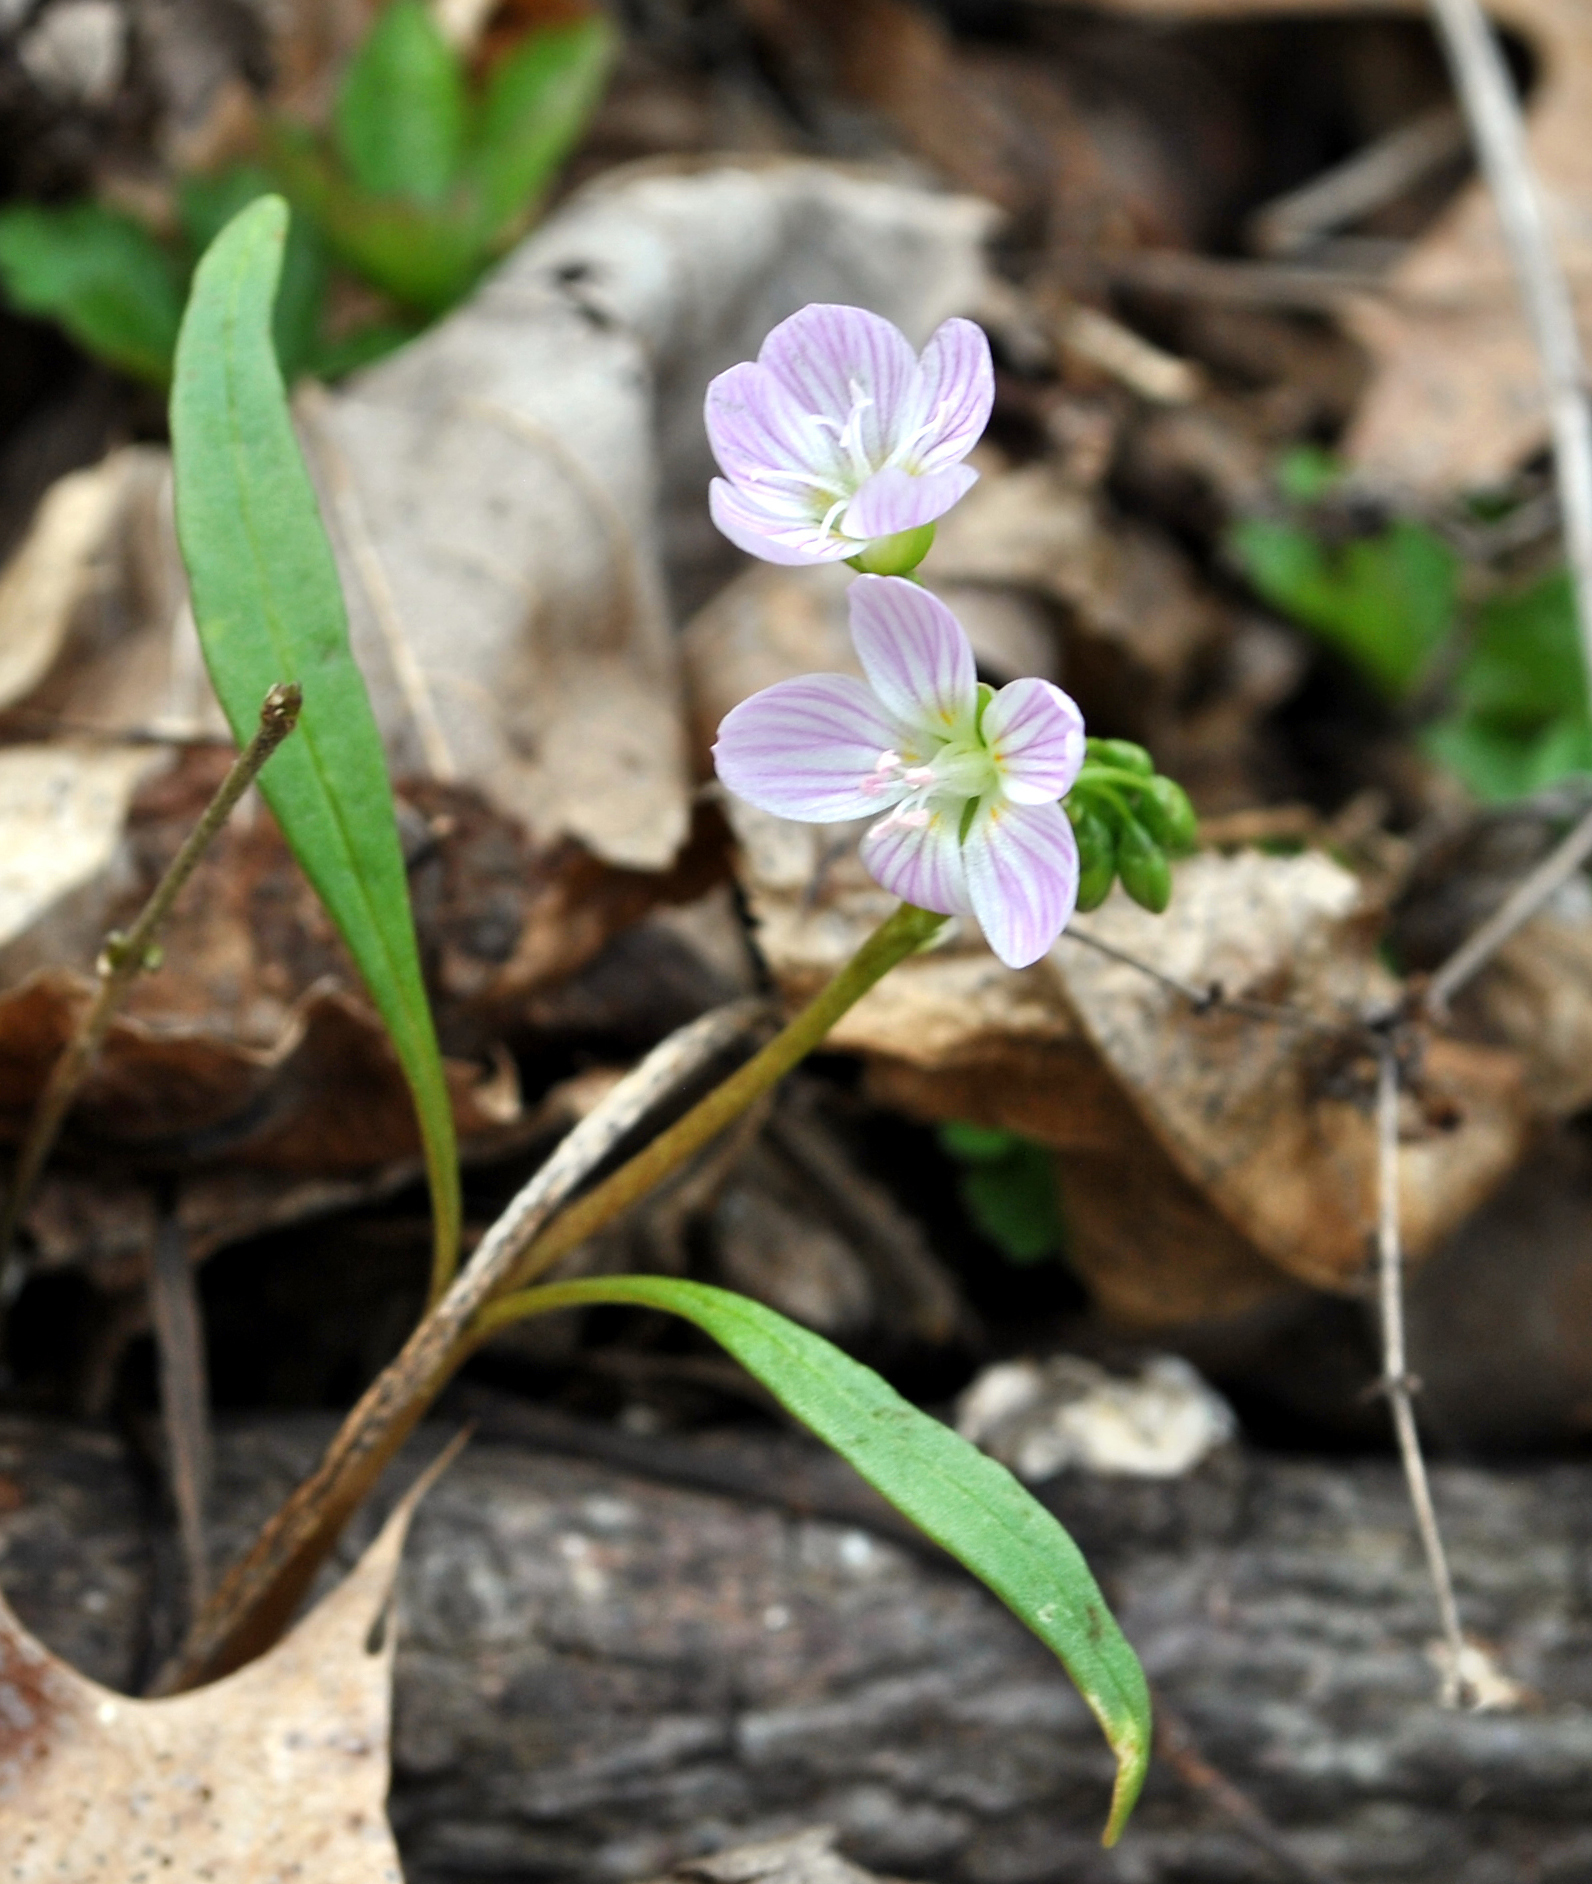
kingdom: Plantae
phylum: Tracheophyta
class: Magnoliopsida
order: Caryophyllales
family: Montiaceae
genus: Claytonia
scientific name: Claytonia virginica
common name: Virginia springbeauty
